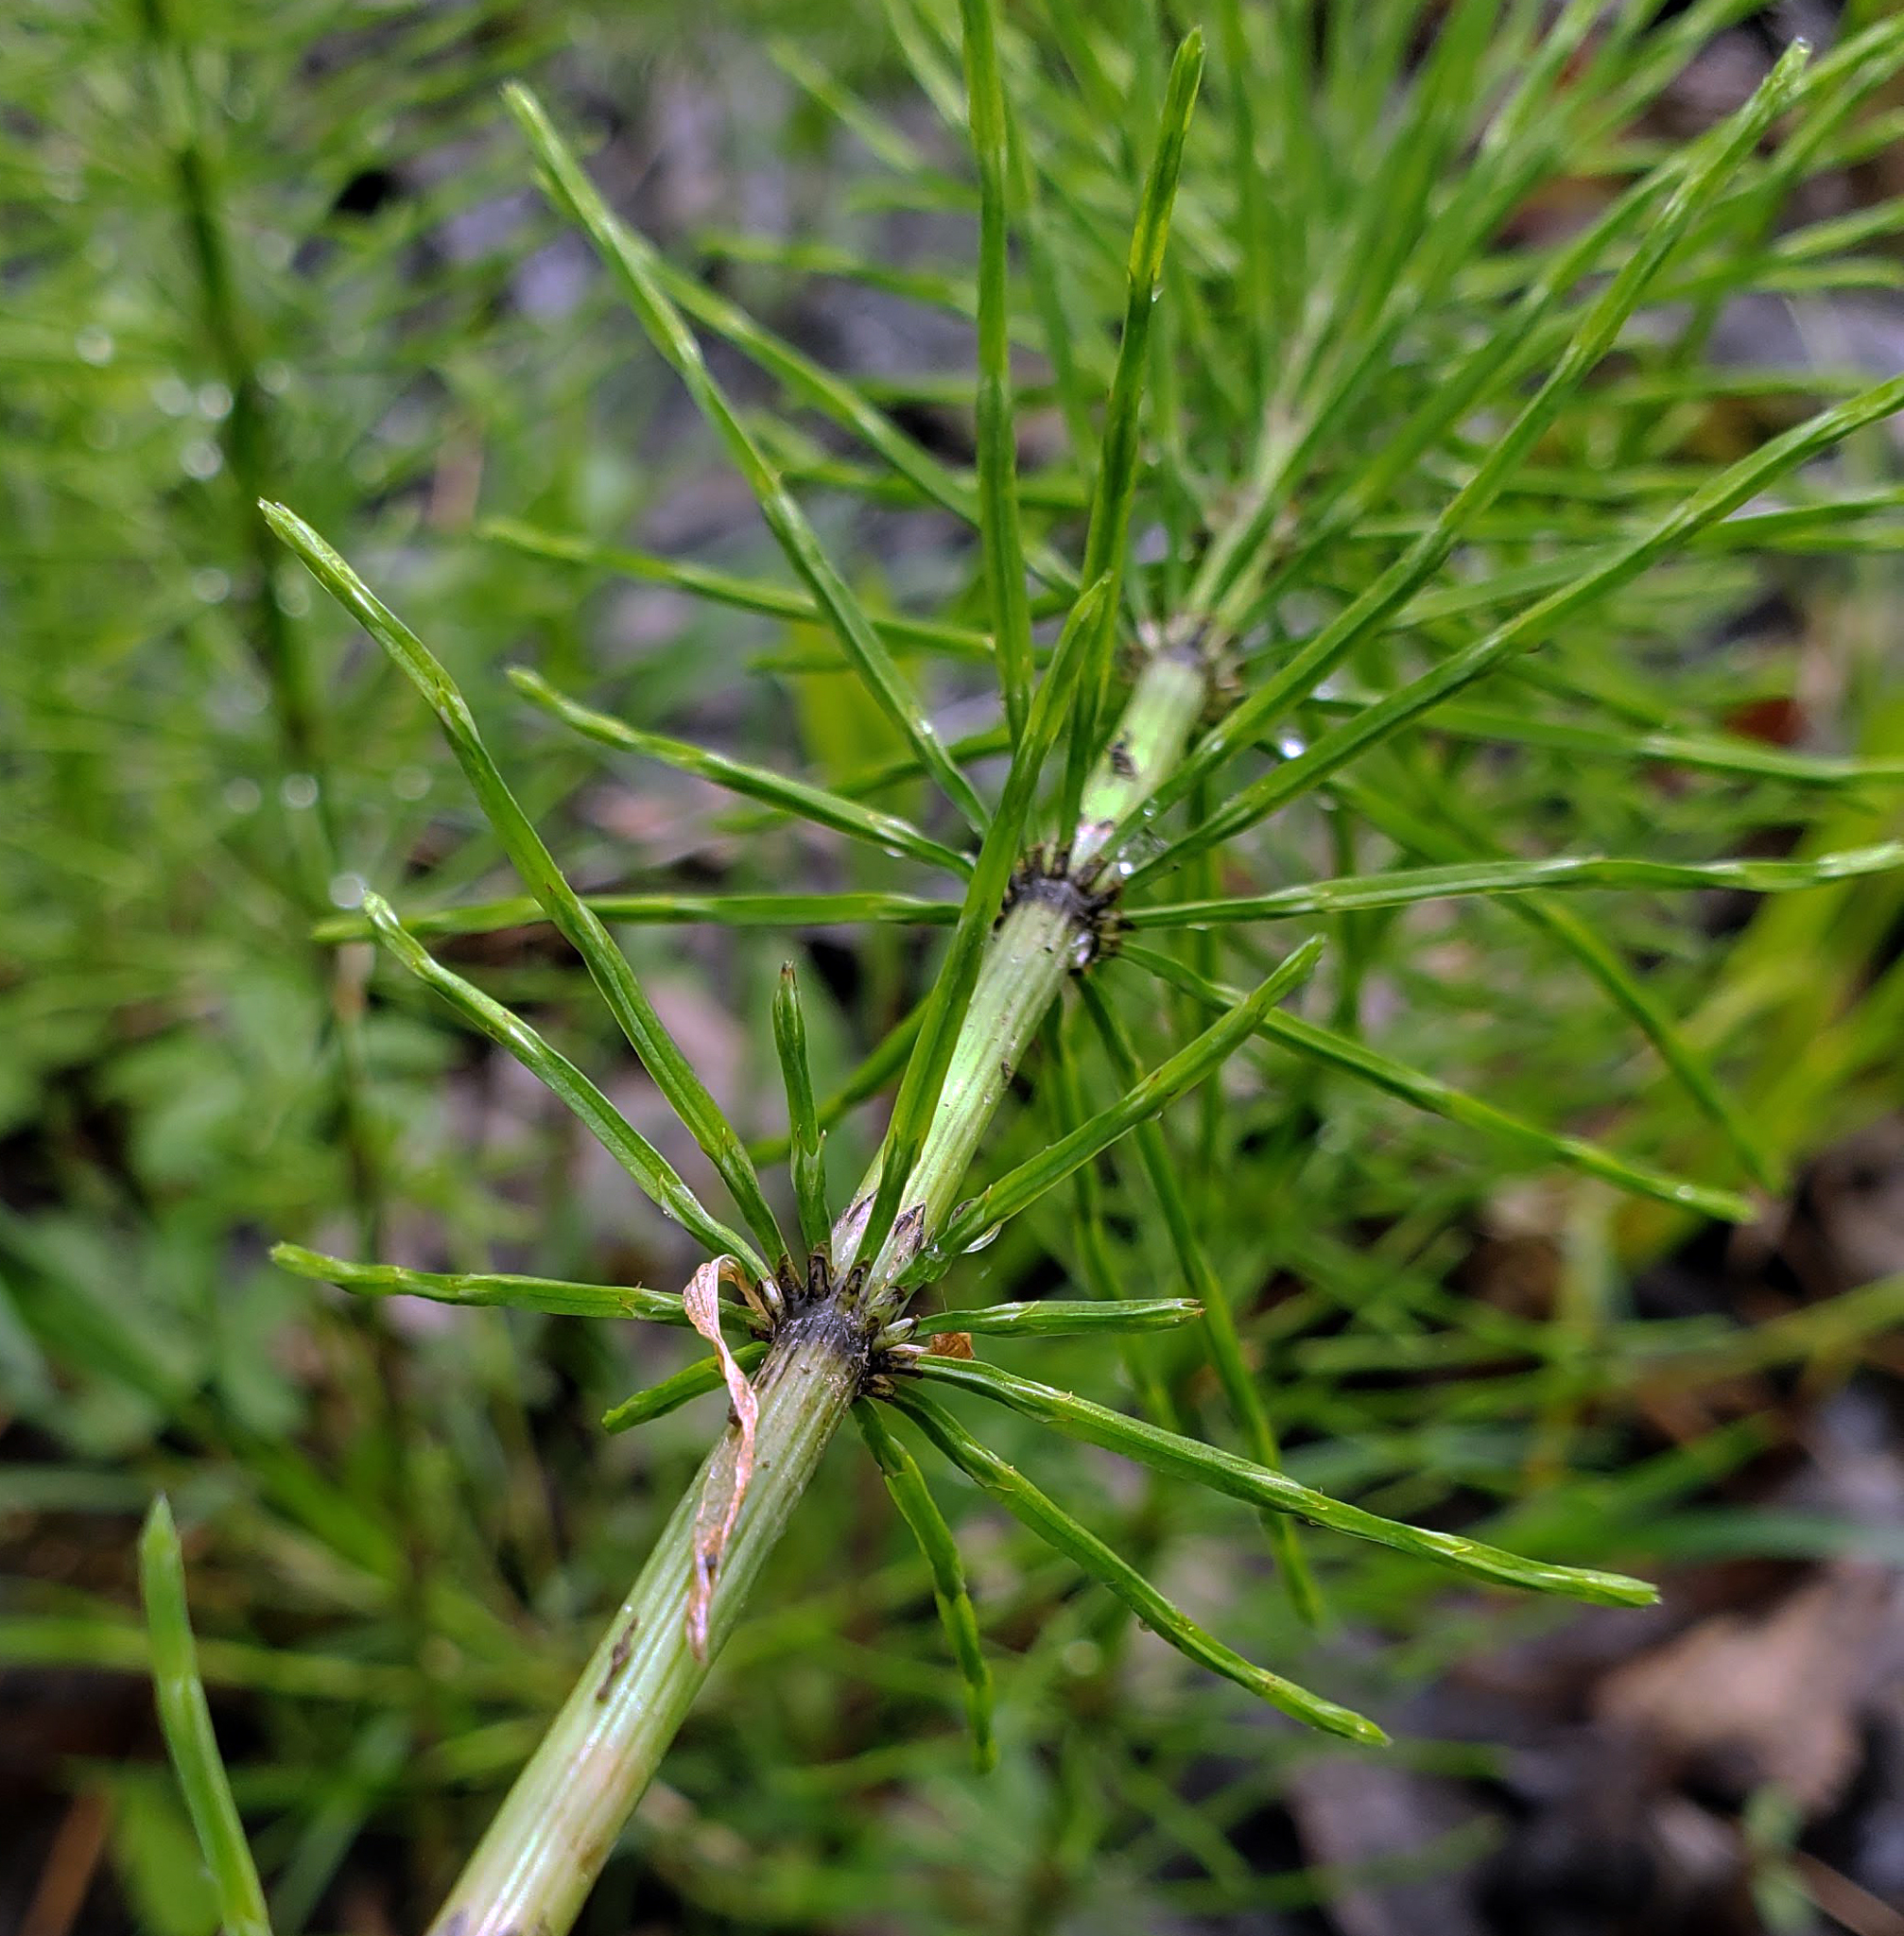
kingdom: Plantae
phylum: Tracheophyta
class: Polypodiopsida
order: Equisetales
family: Equisetaceae
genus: Equisetum
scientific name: Equisetum arvense
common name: Field horsetail
